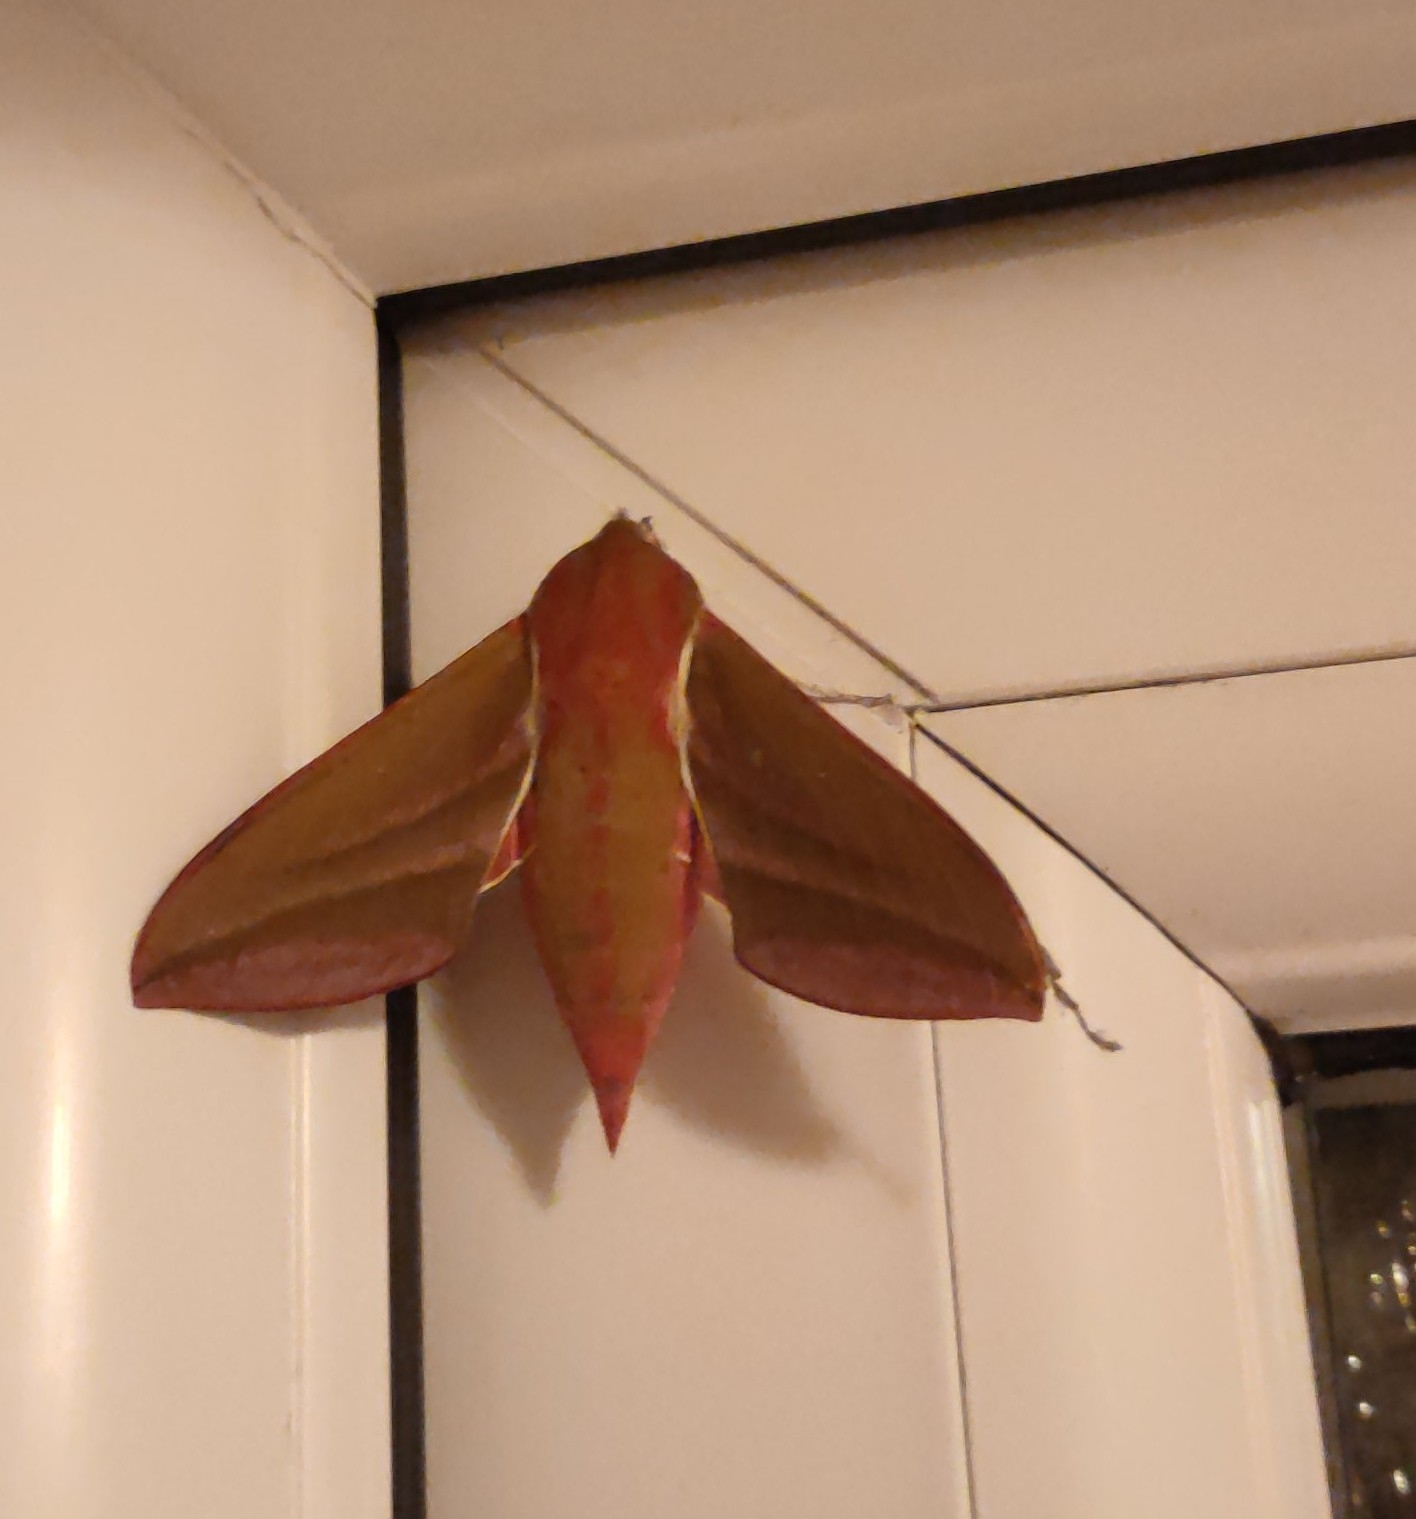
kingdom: Animalia
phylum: Arthropoda
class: Insecta
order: Lepidoptera
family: Sphingidae
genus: Deilephila
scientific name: Deilephila elpenor
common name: Elephant hawk-moth
